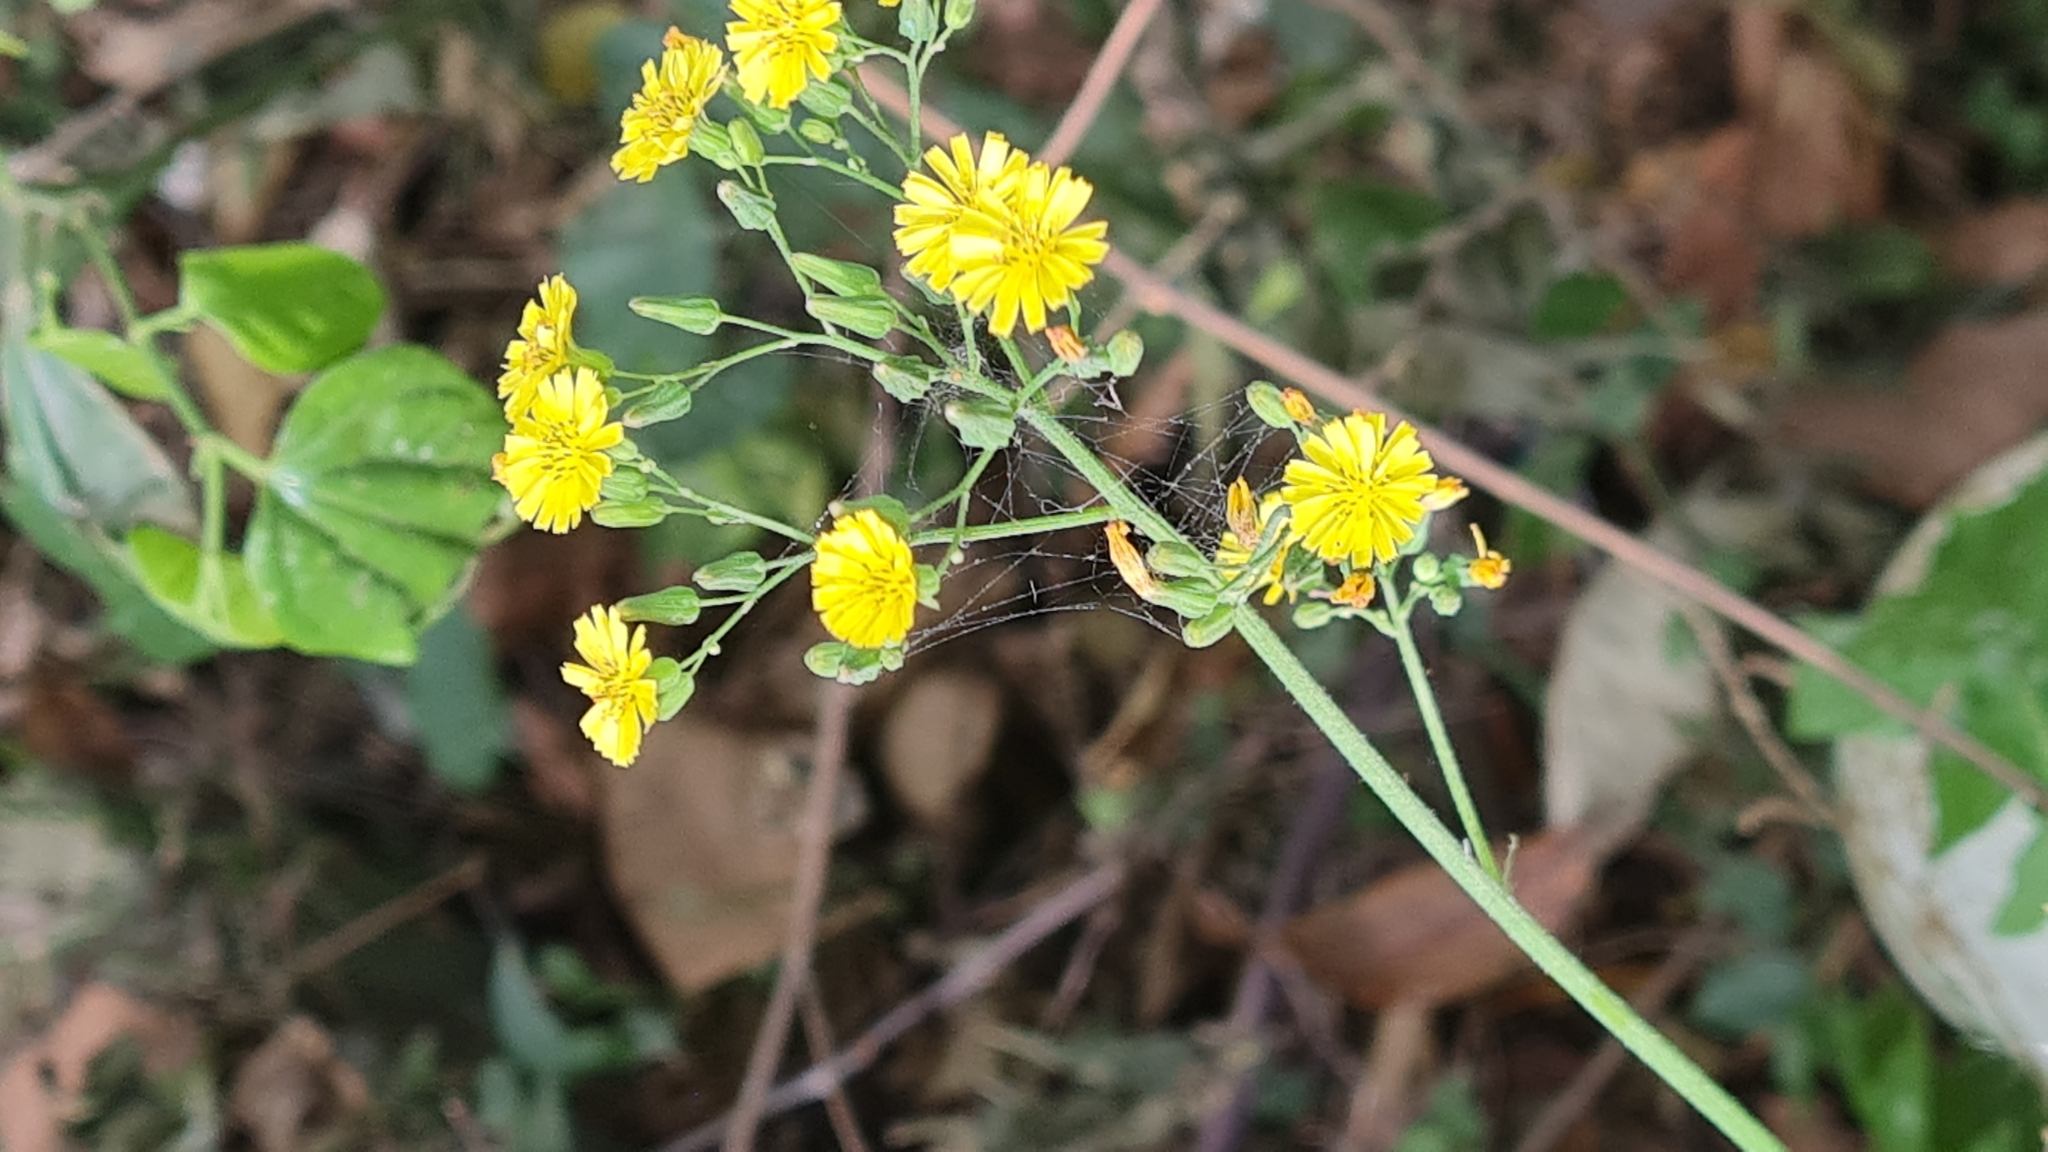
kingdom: Plantae
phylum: Tracheophyta
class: Magnoliopsida
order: Asterales
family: Asteraceae
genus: Youngia
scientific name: Youngia japonica
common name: Oriental false hawksbeard
